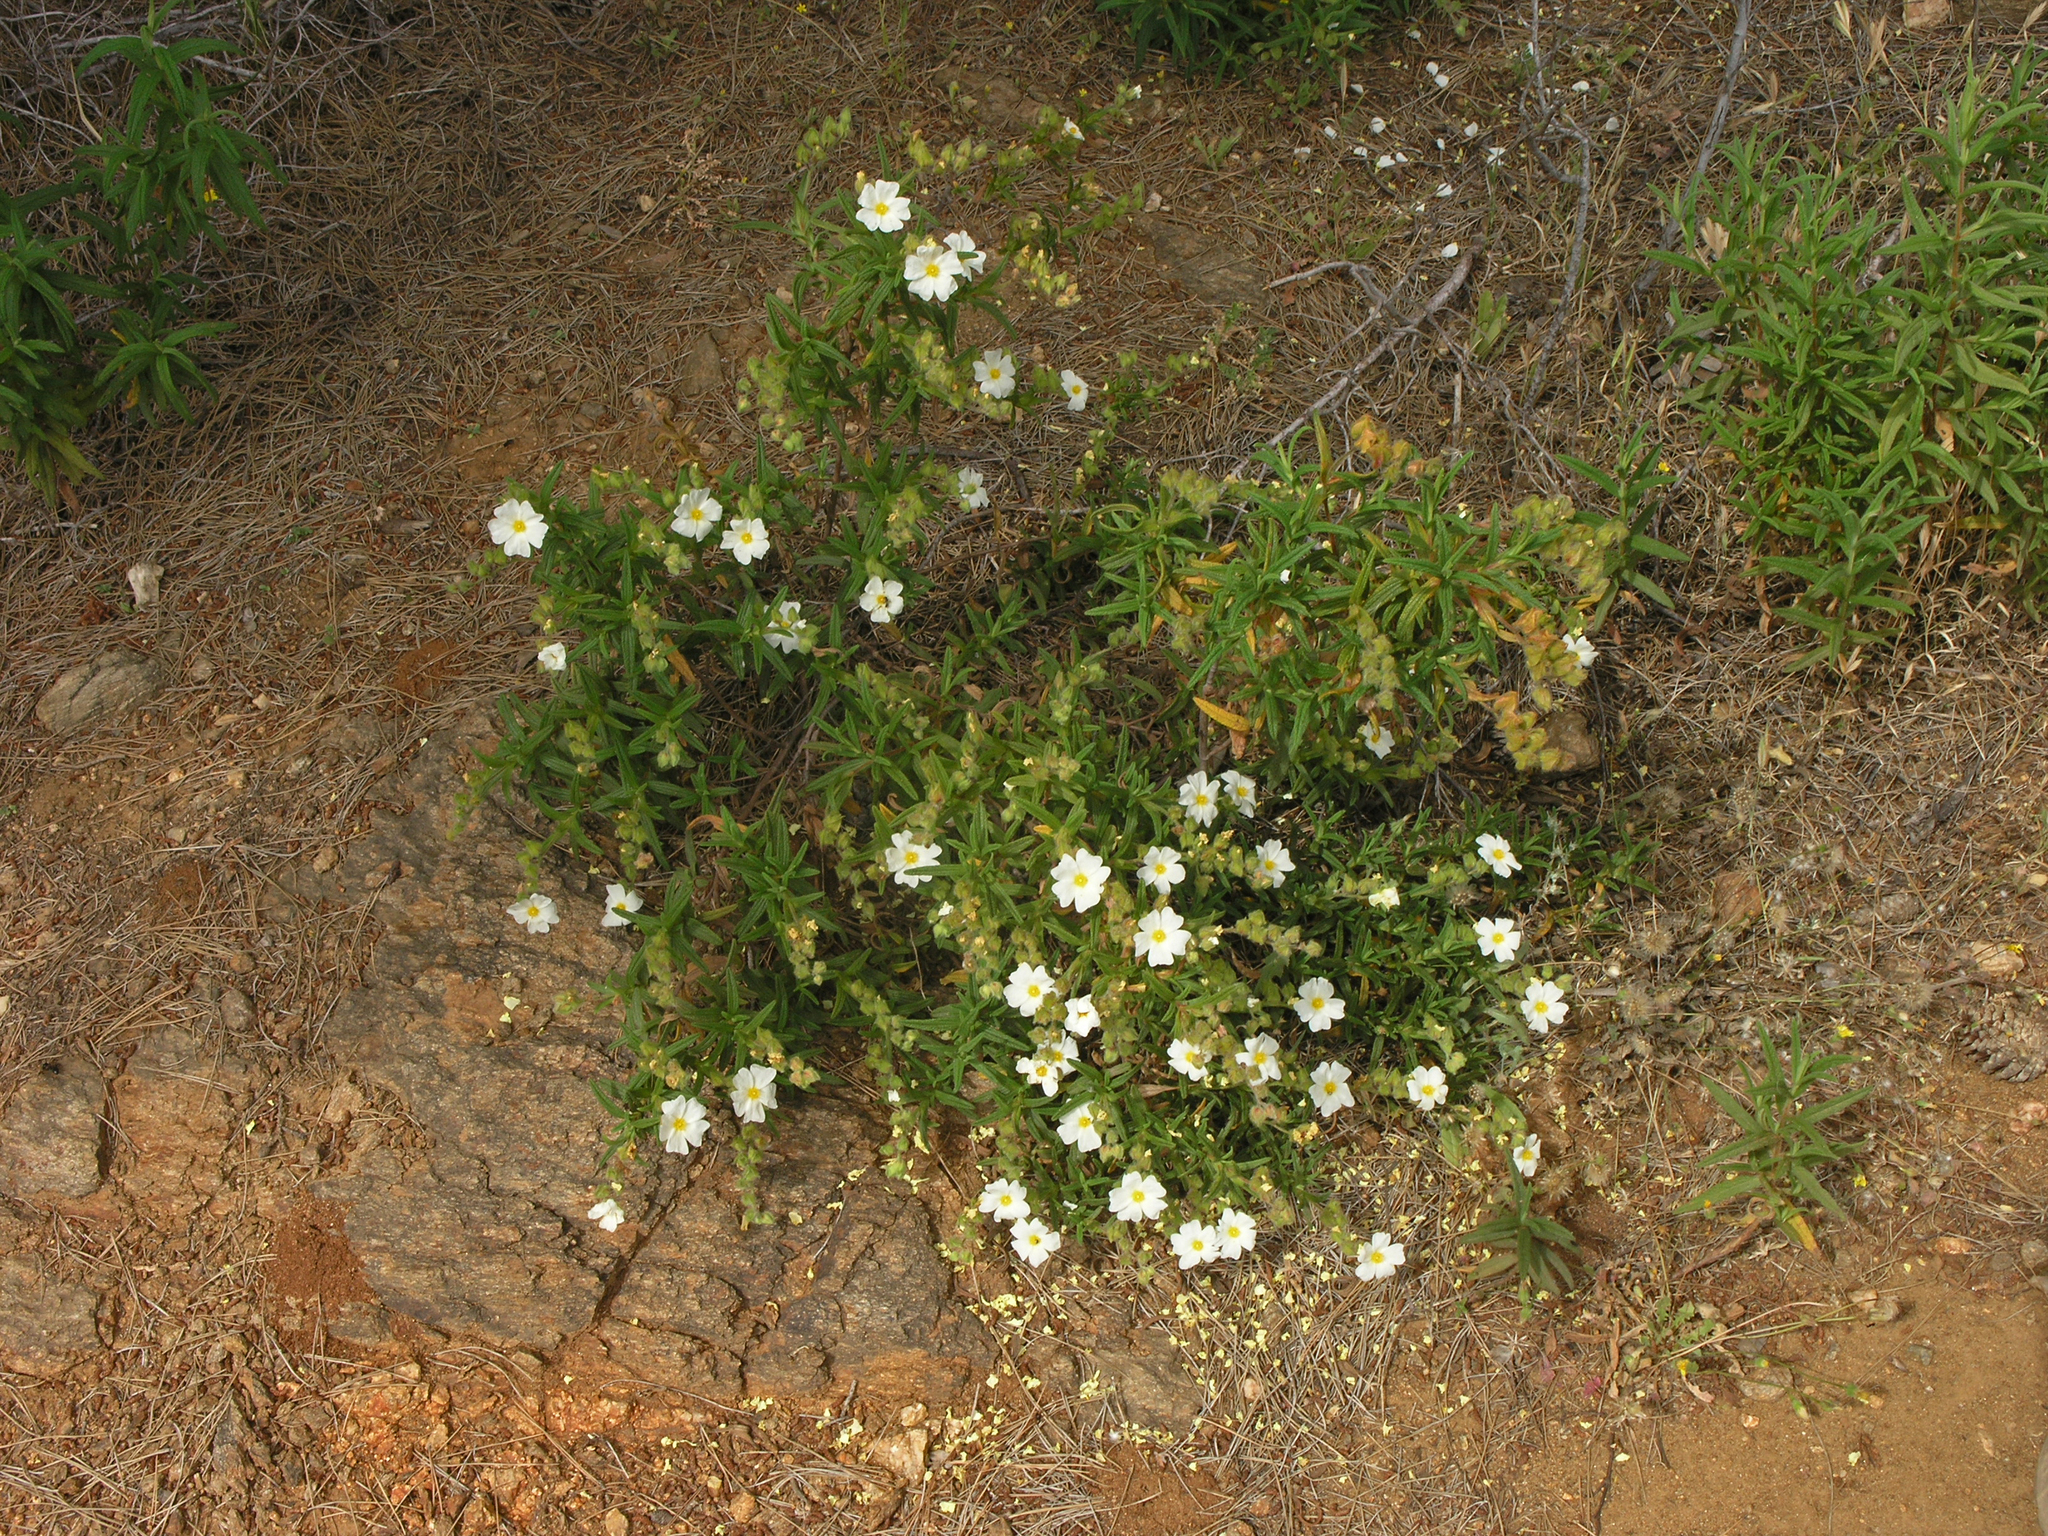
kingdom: Plantae
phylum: Tracheophyta
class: Magnoliopsida
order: Malvales
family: Cistaceae
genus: Cistus
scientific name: Cistus monspeliensis
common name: Montpelier cistus
